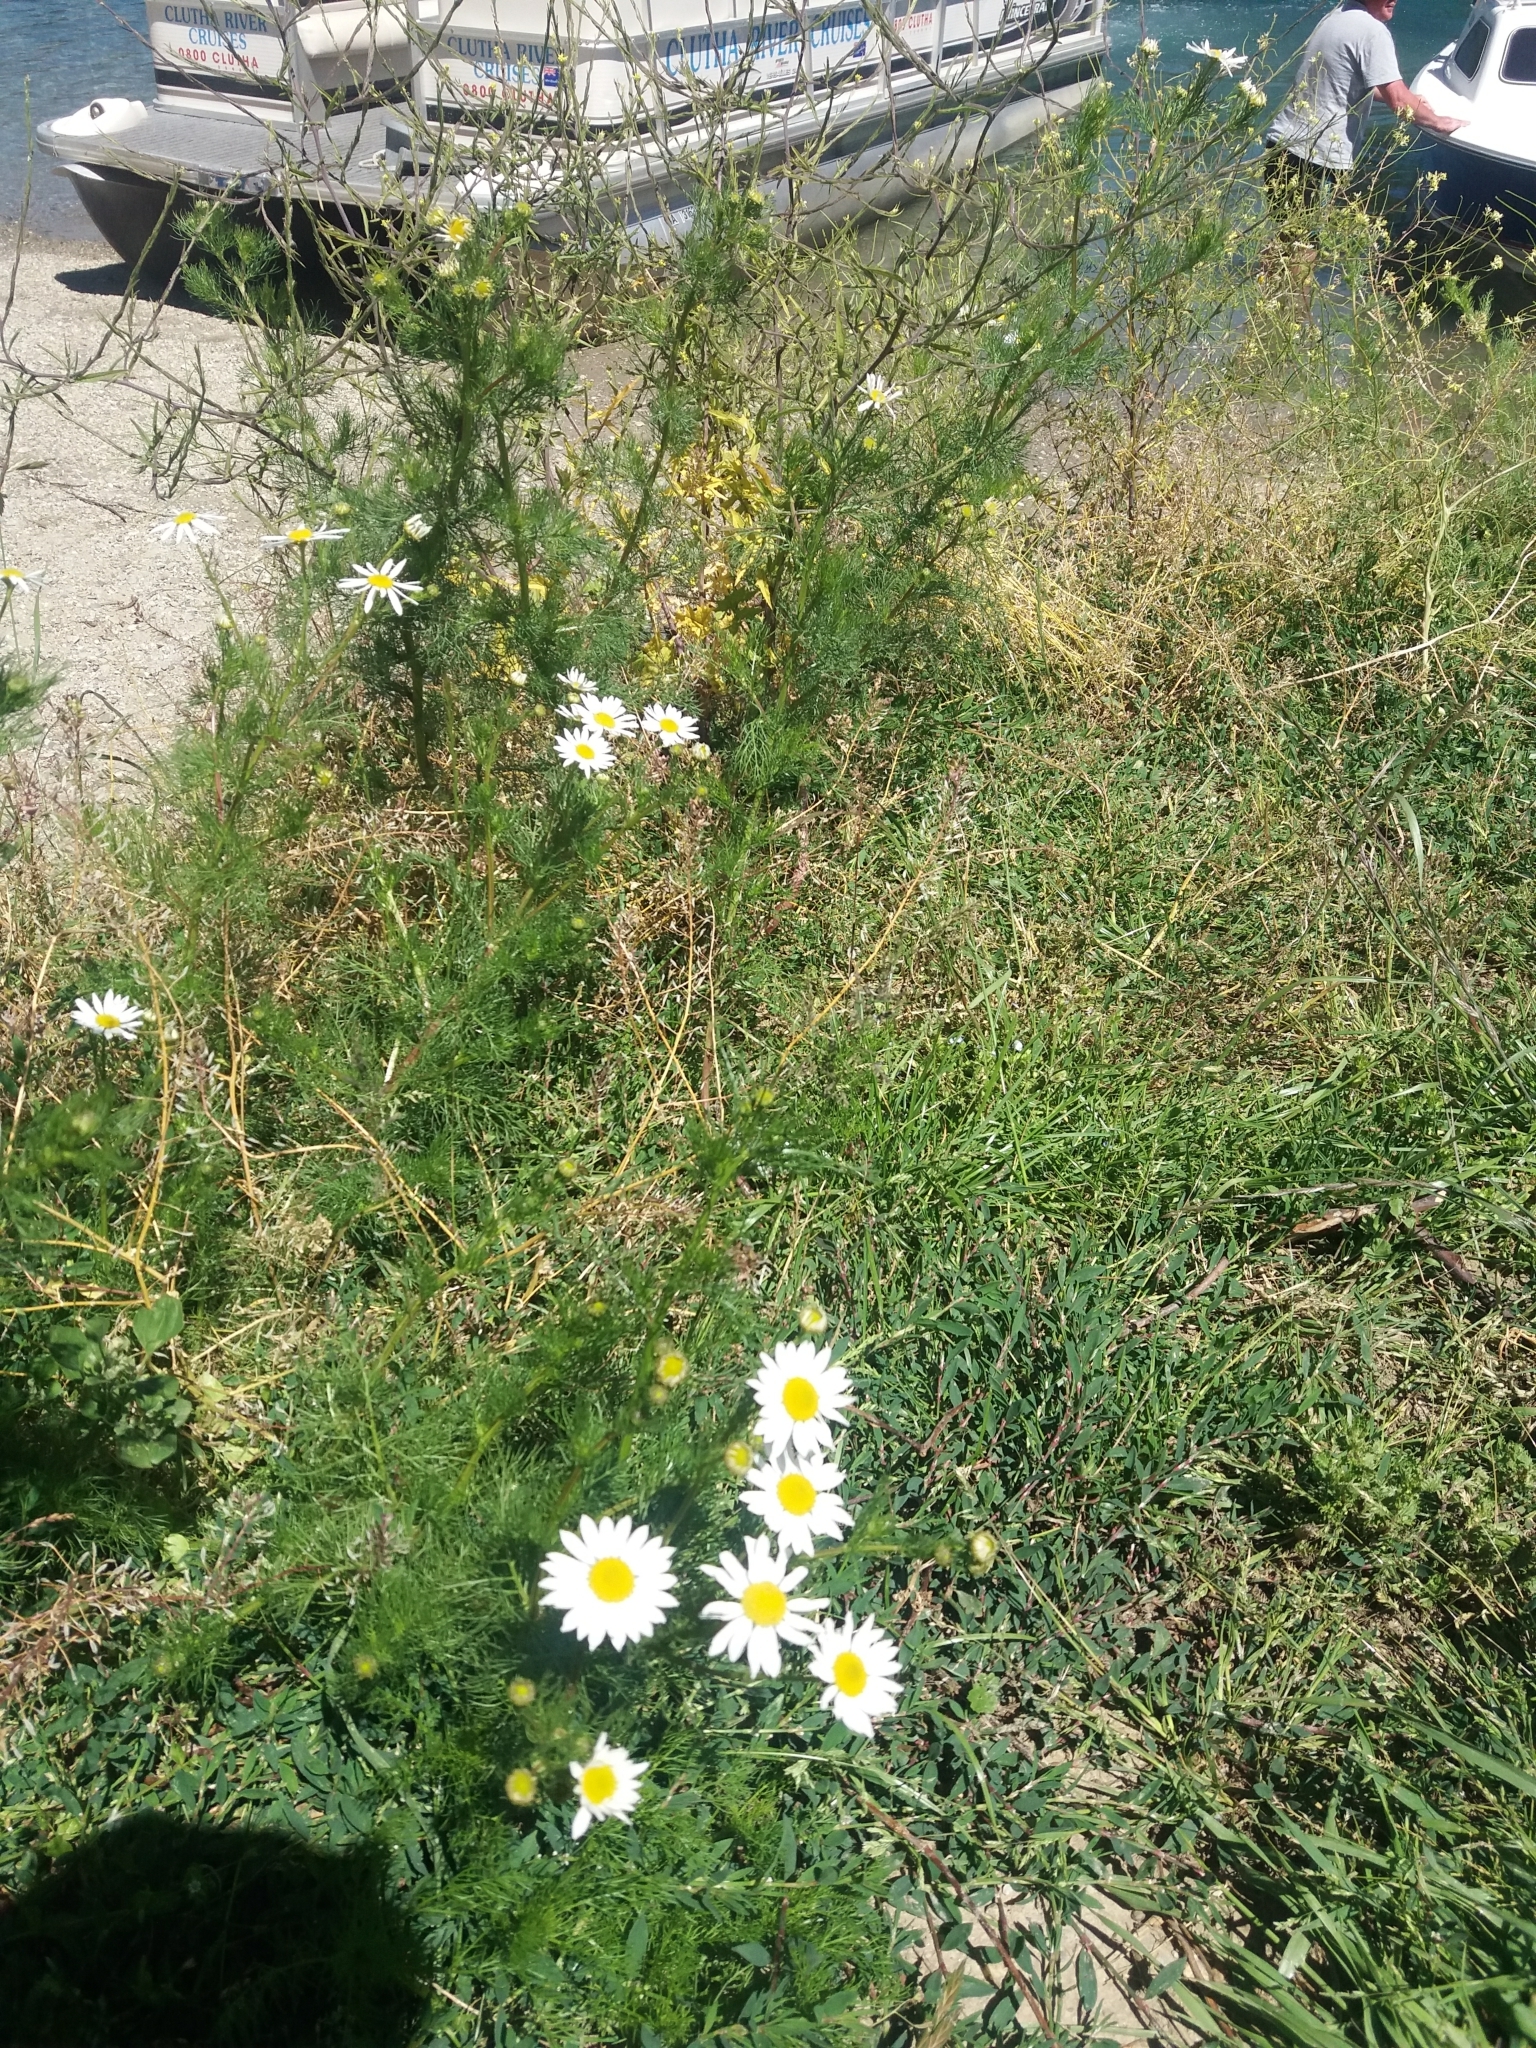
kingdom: Plantae
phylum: Tracheophyta
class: Magnoliopsida
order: Asterales
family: Asteraceae
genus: Tripleurospermum
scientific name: Tripleurospermum inodorum
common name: Scentless mayweed
